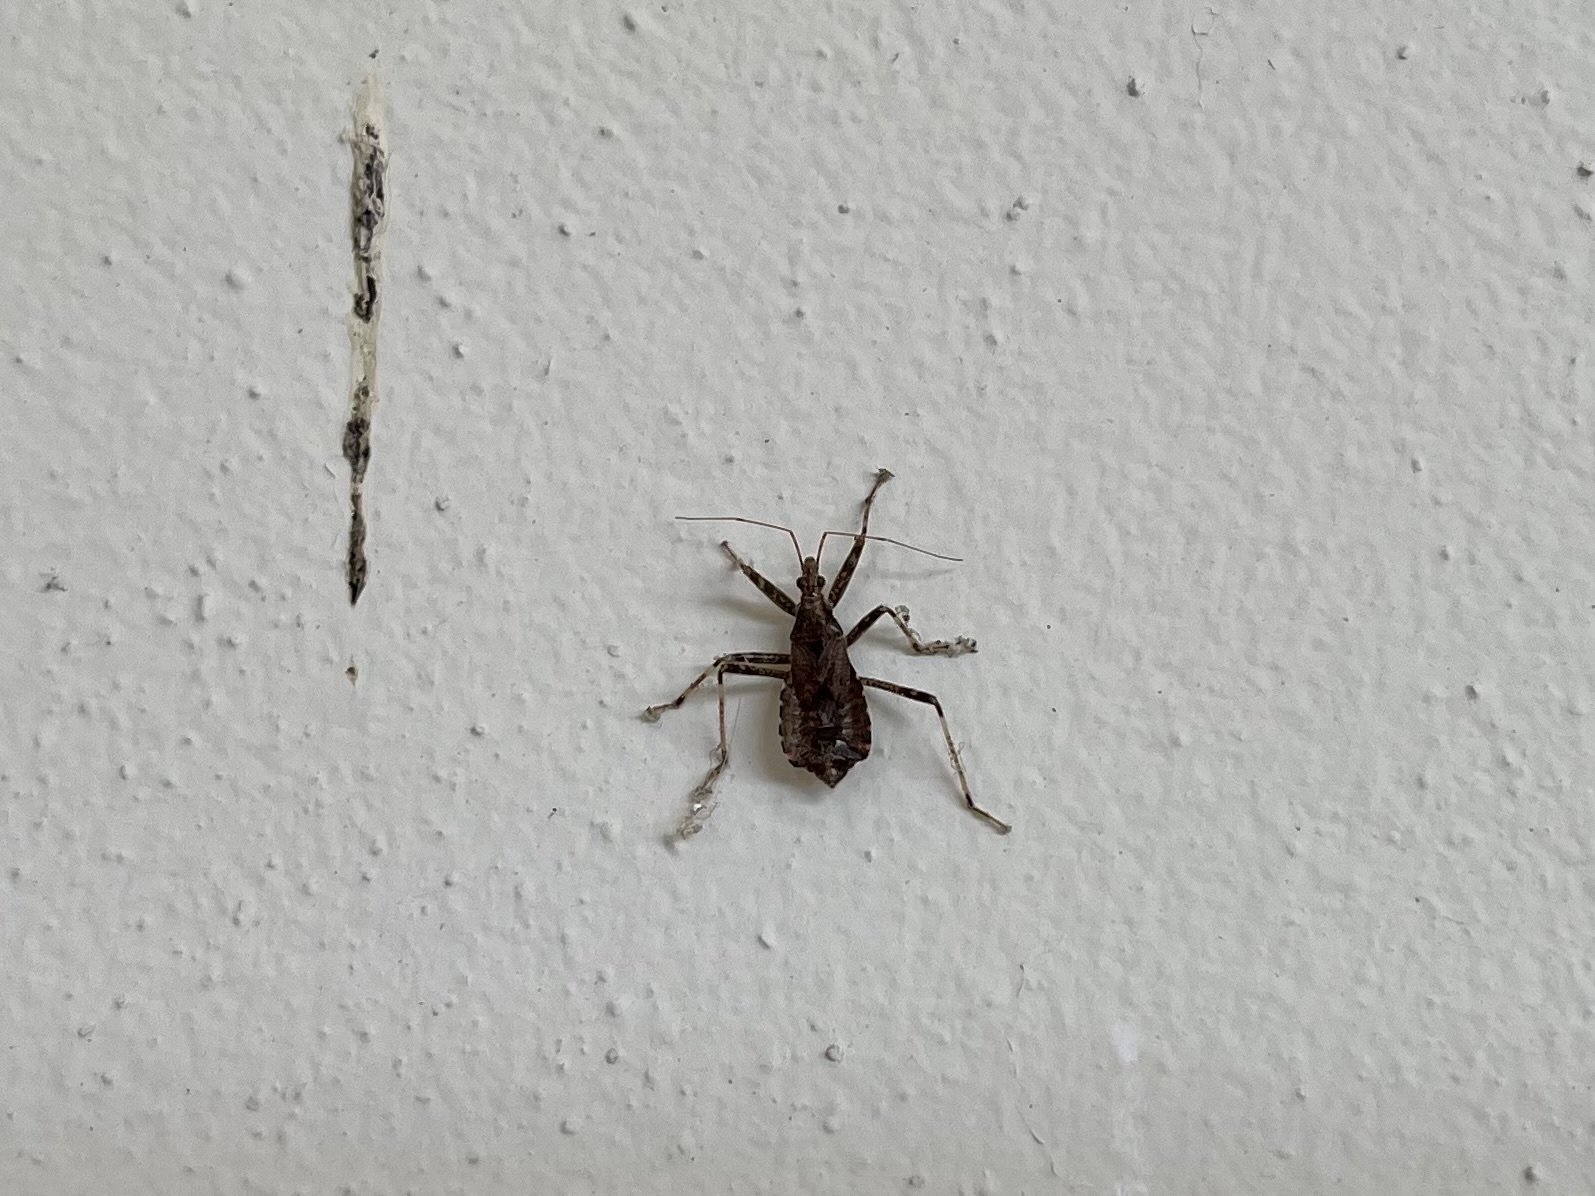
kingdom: Animalia
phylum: Arthropoda
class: Insecta
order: Hemiptera
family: Nabidae
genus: Himacerus
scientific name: Himacerus apterus
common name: Tree damsel bug
